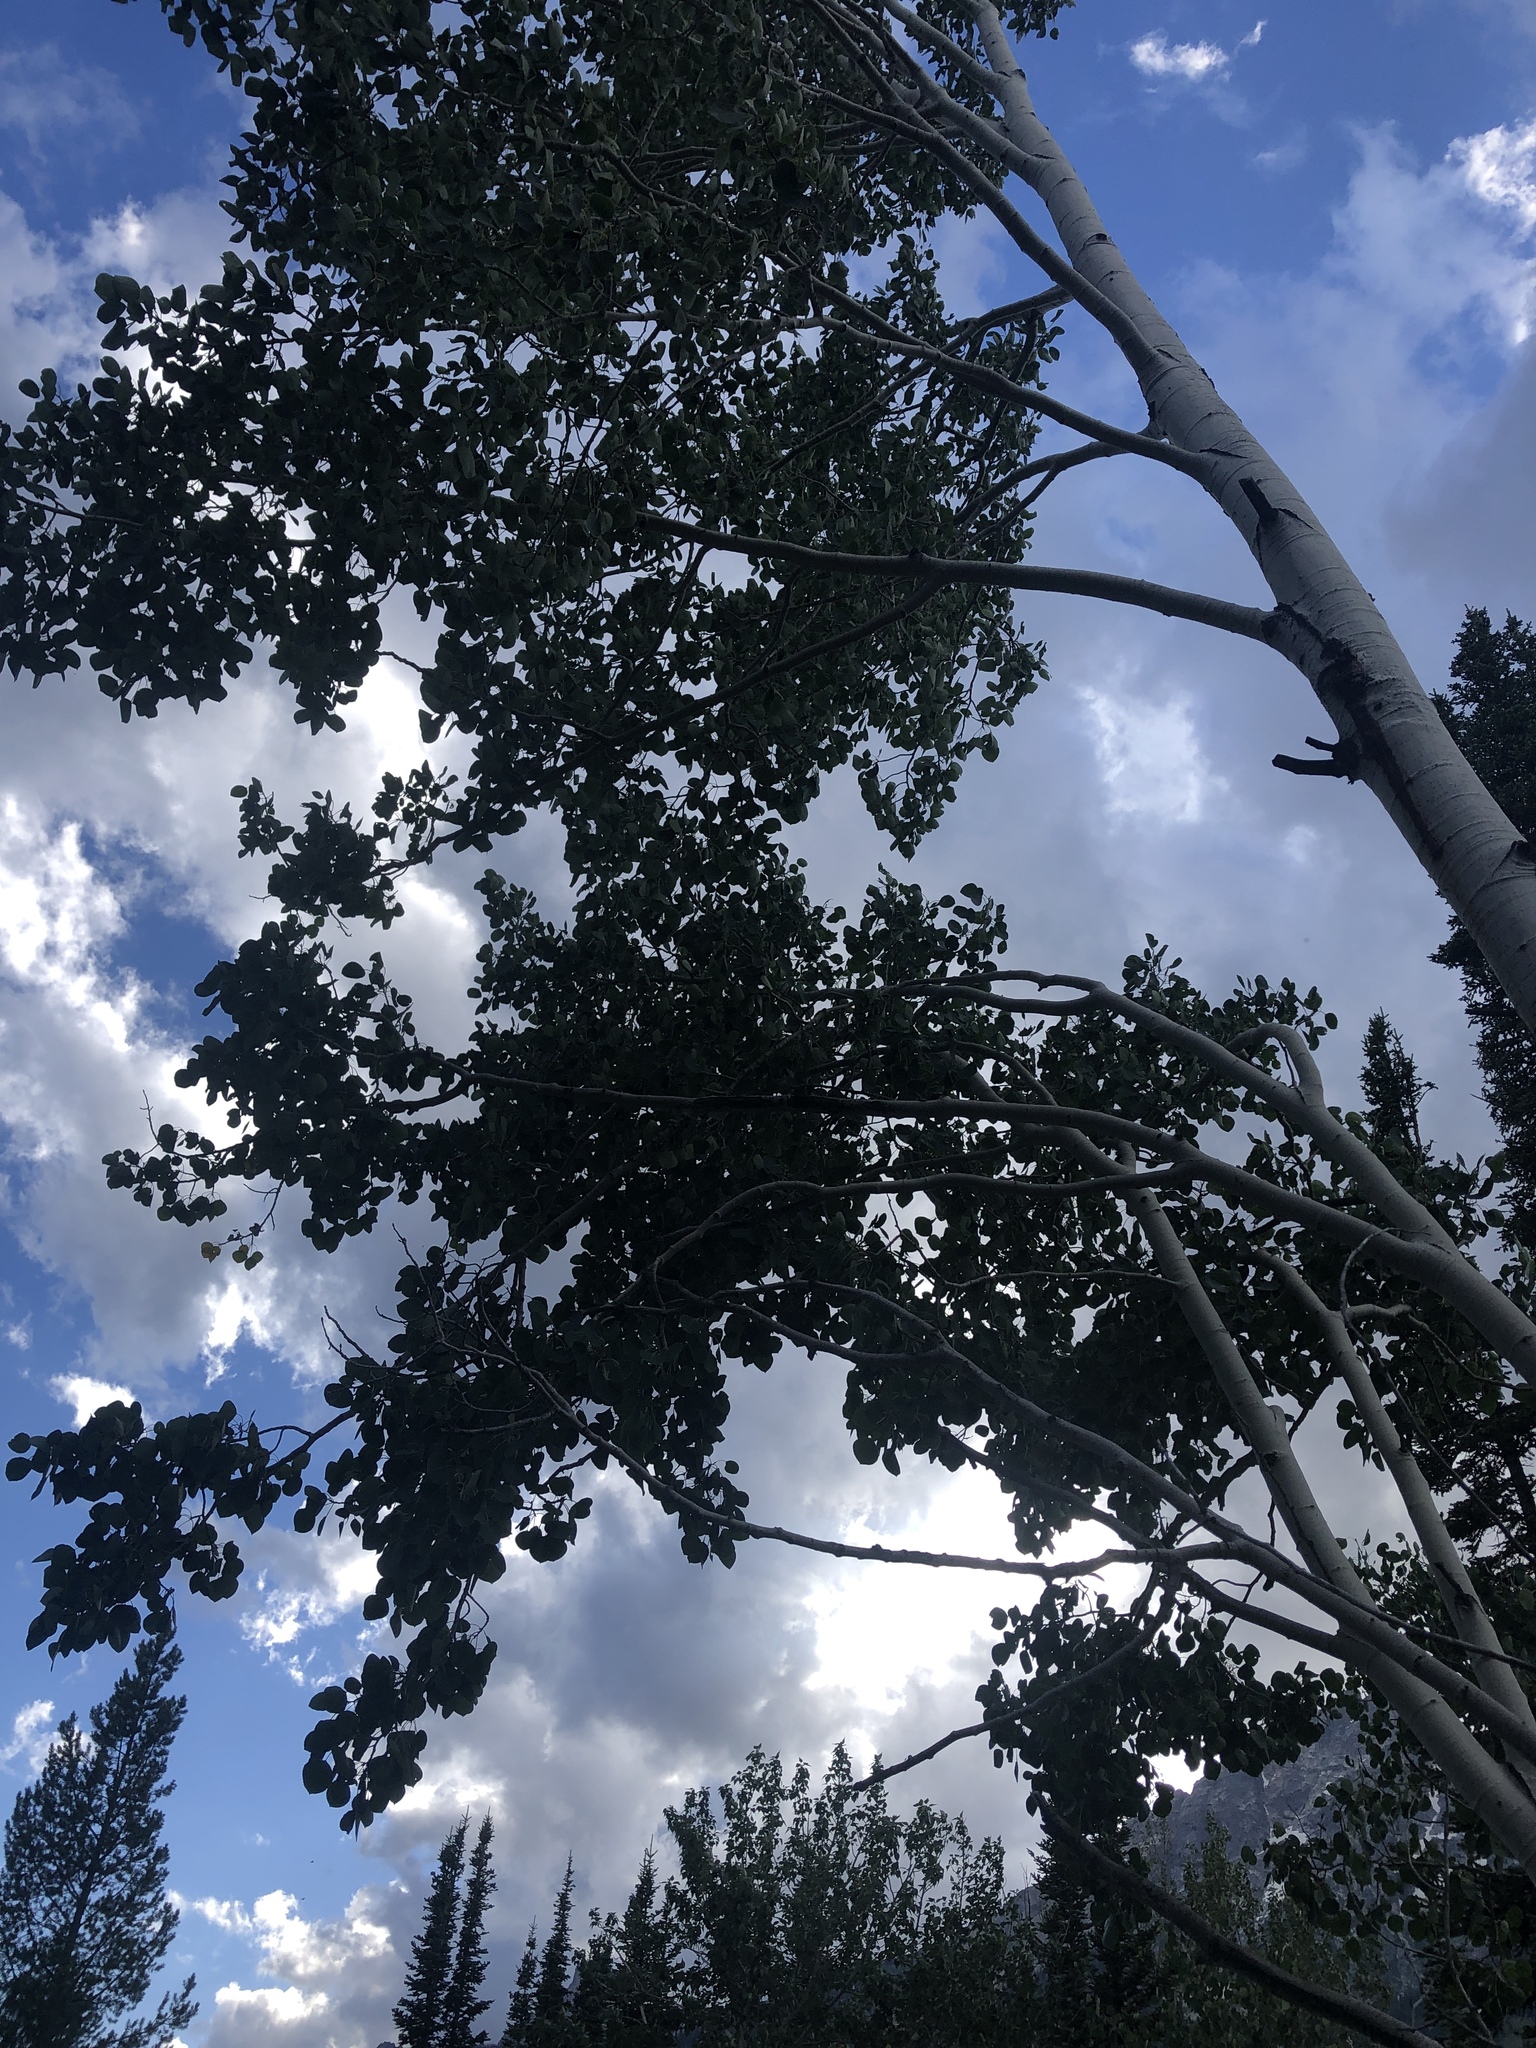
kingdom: Plantae
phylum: Tracheophyta
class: Magnoliopsida
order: Malpighiales
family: Salicaceae
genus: Populus
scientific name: Populus tremuloides
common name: Quaking aspen
